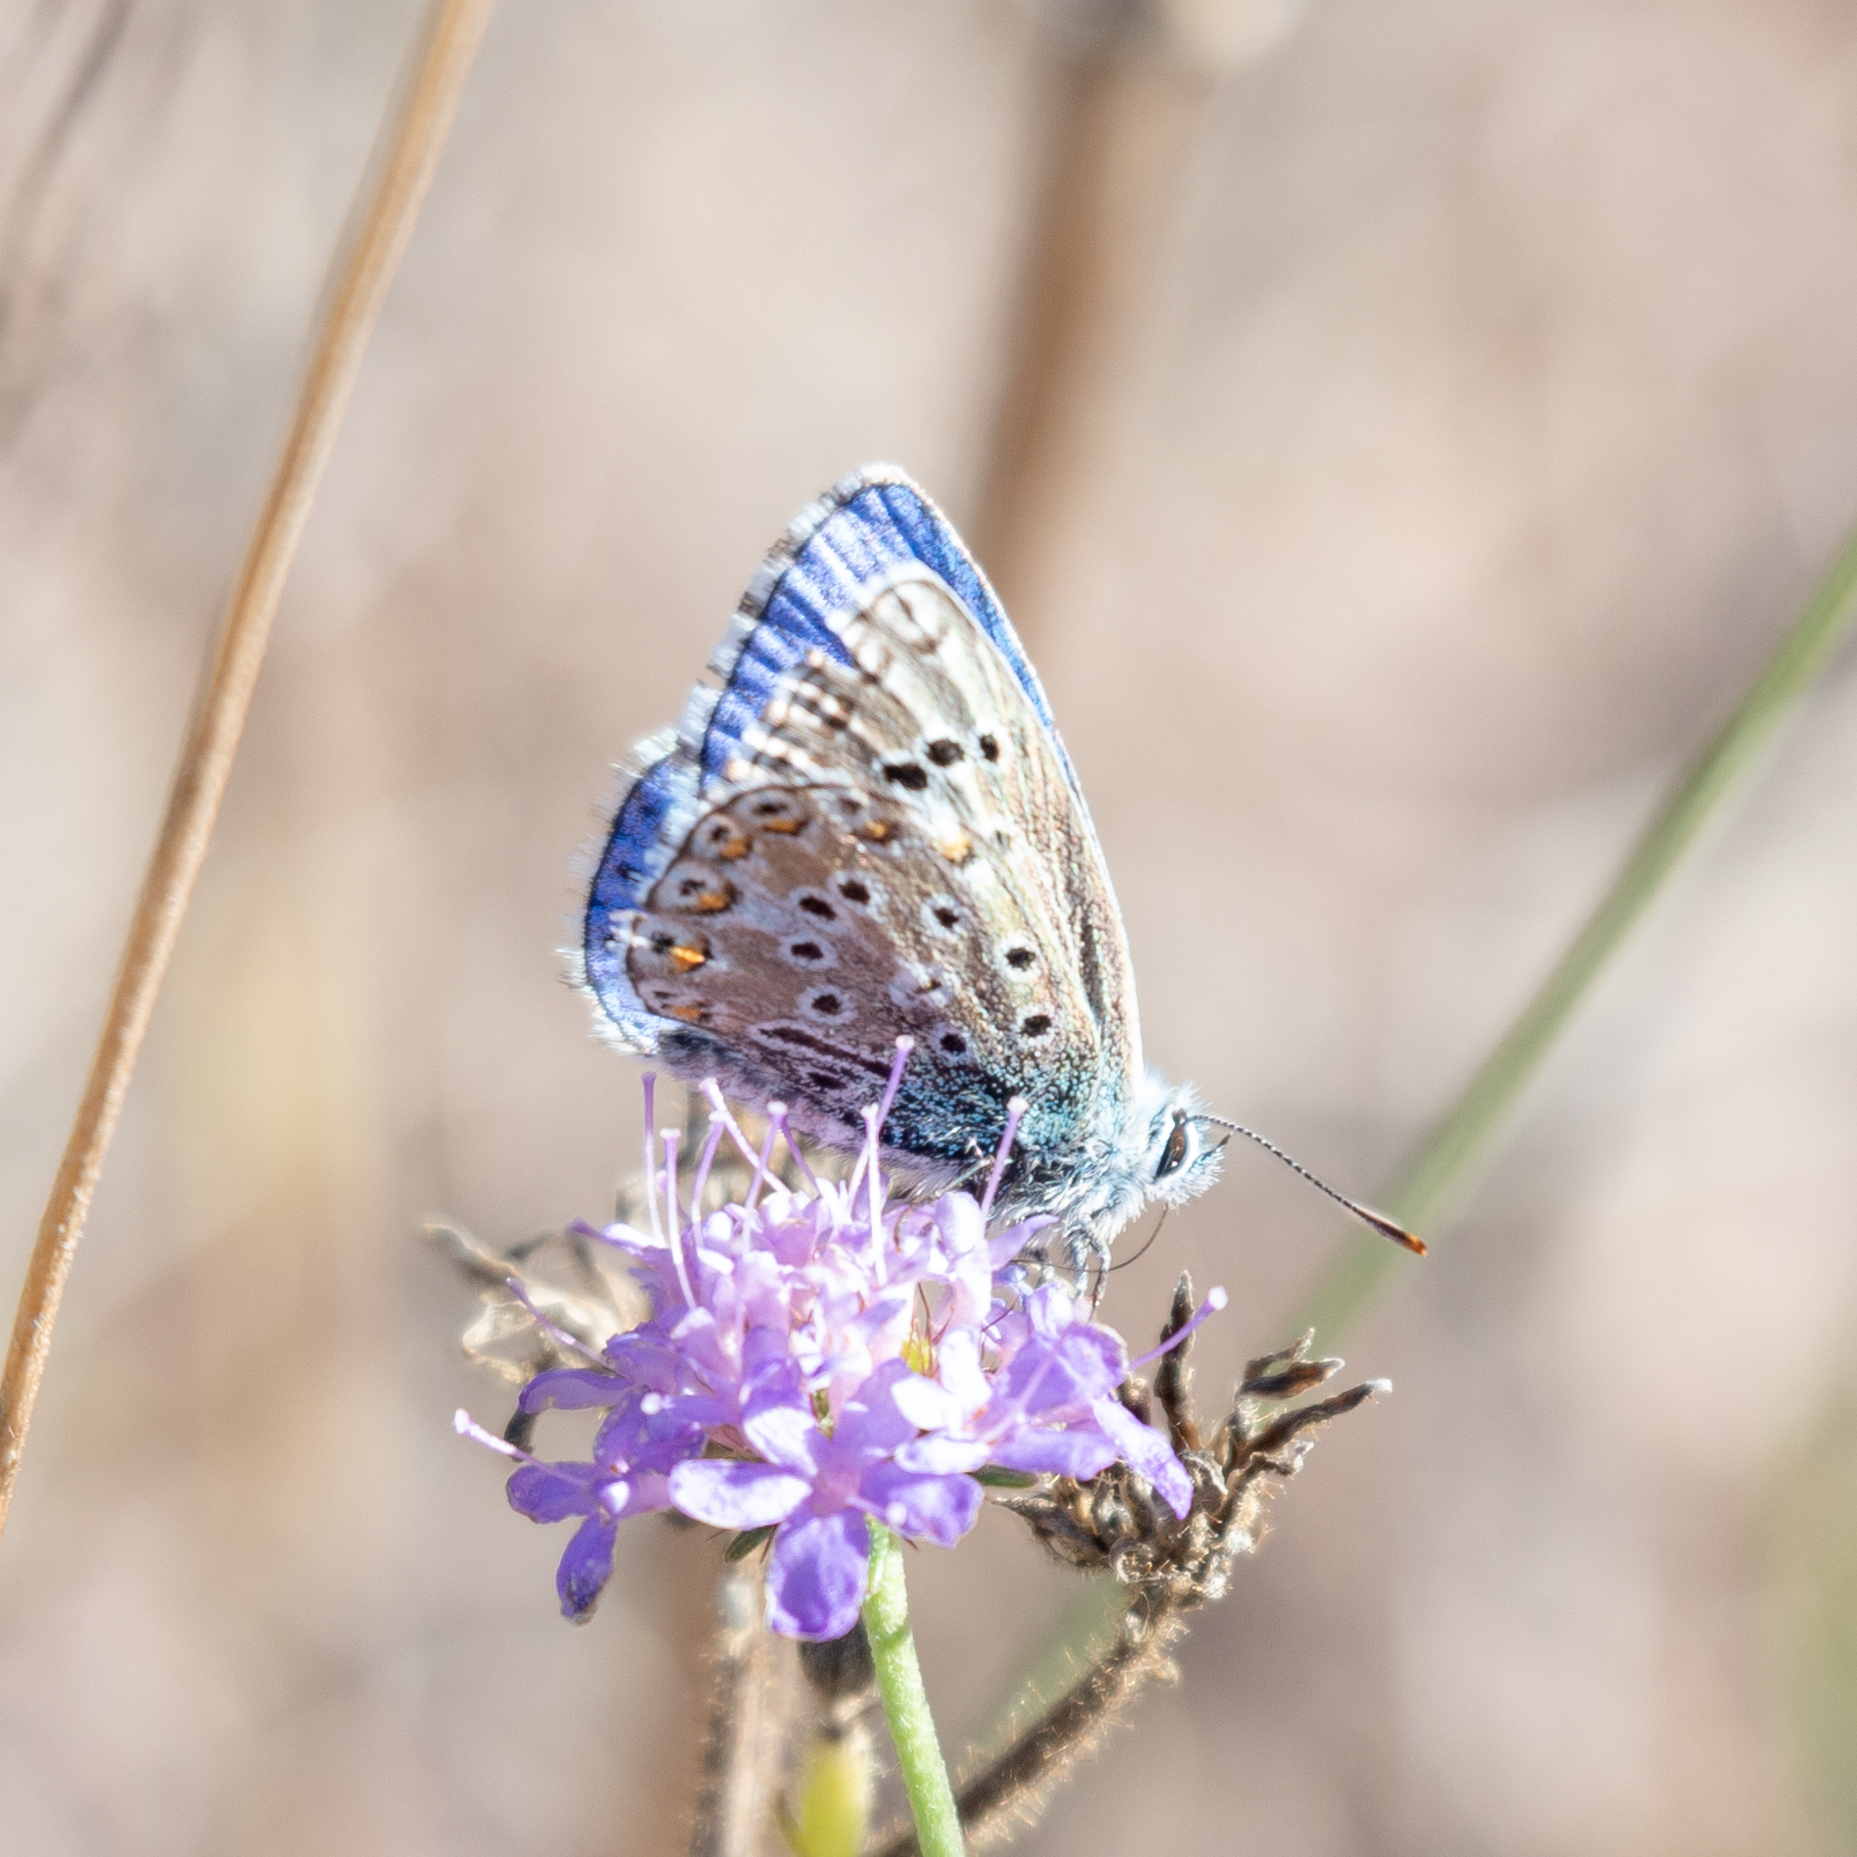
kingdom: Animalia
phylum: Arthropoda
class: Insecta
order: Lepidoptera
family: Lycaenidae
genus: Lysandra
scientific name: Lysandra bellargus
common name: Adonis blue
